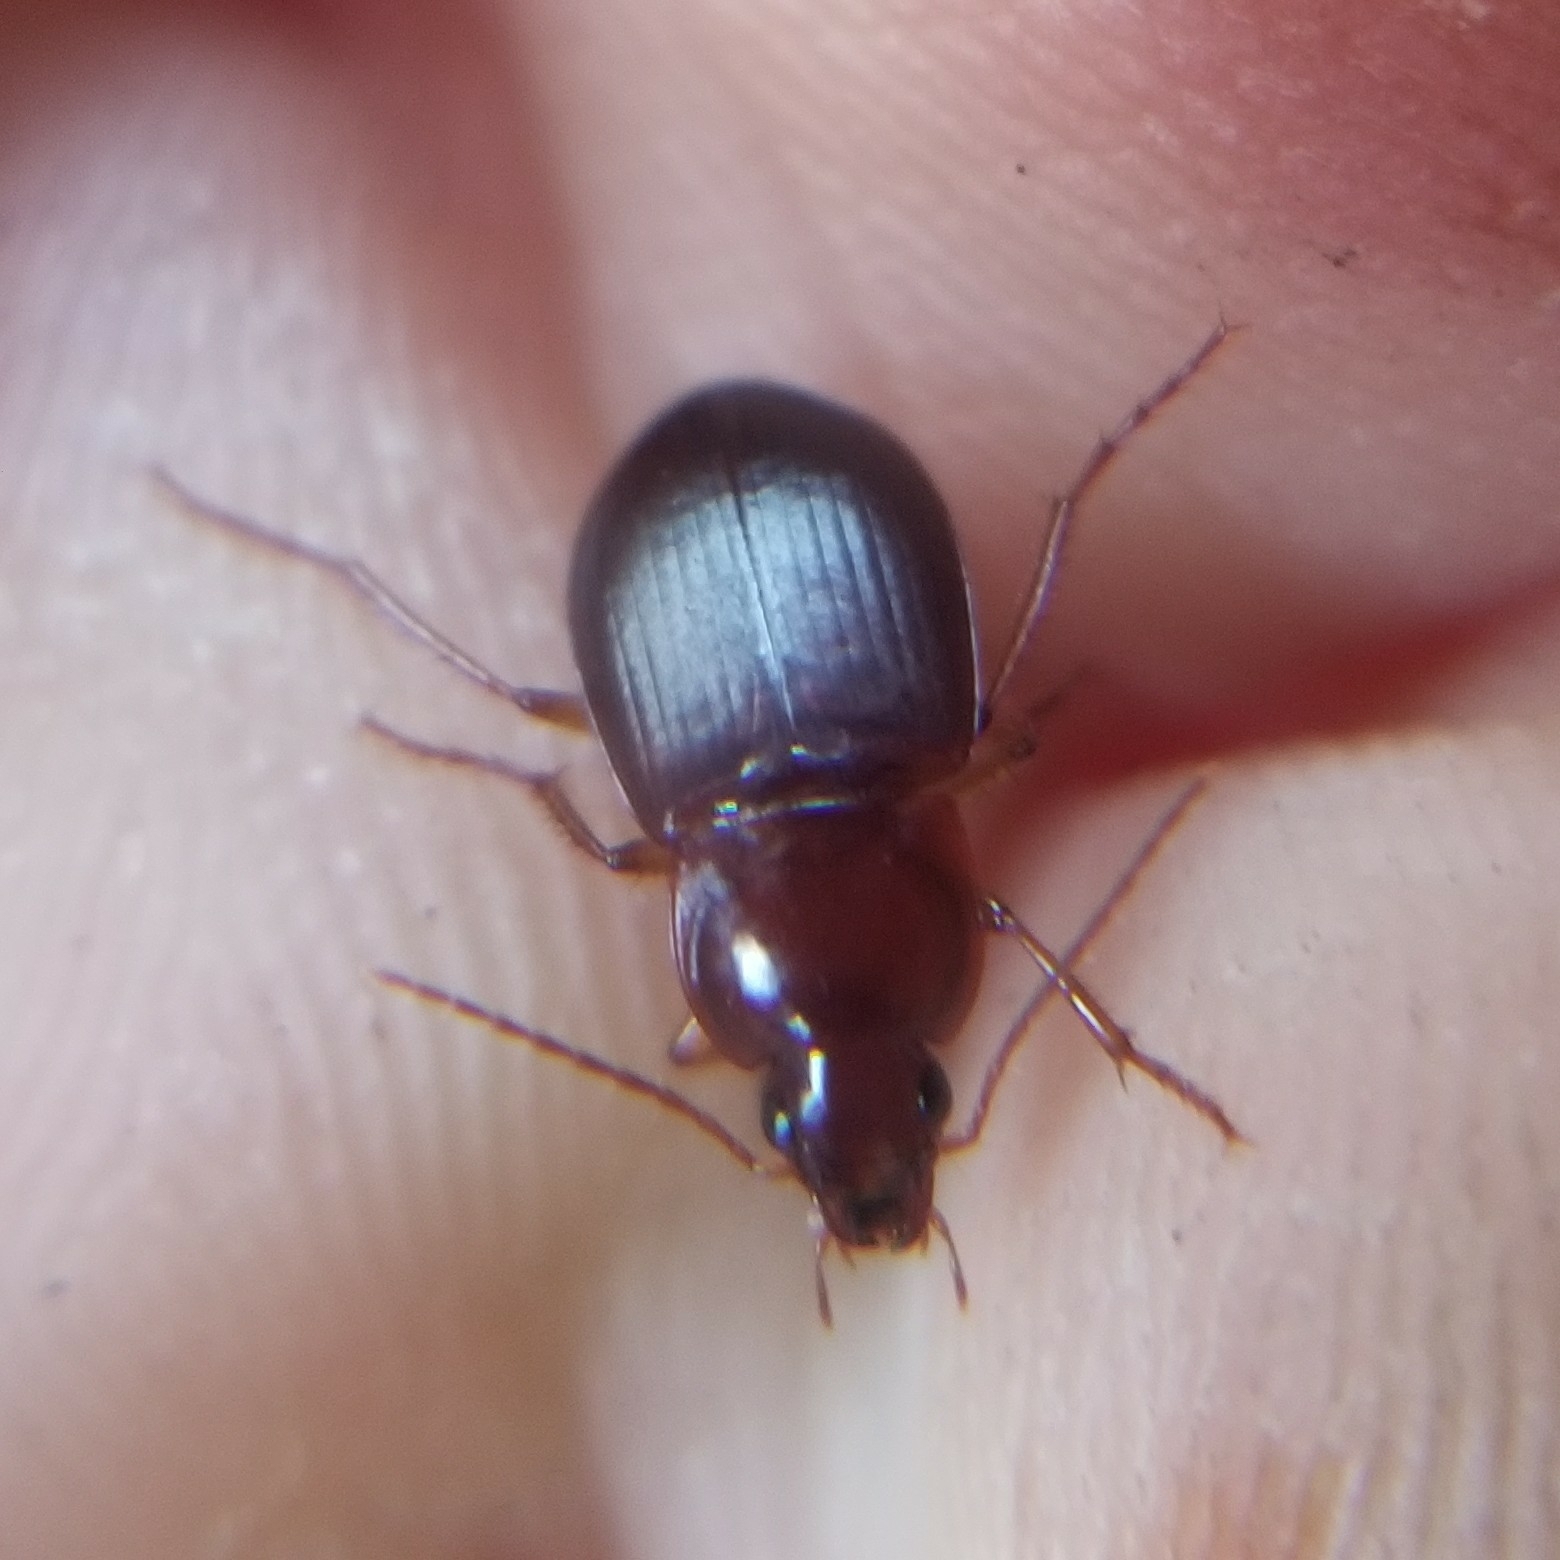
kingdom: Animalia
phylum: Arthropoda
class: Insecta
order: Coleoptera
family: Carabidae
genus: Calathus
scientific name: Calathus ruficollis
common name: Red-collared harp ground beetle
